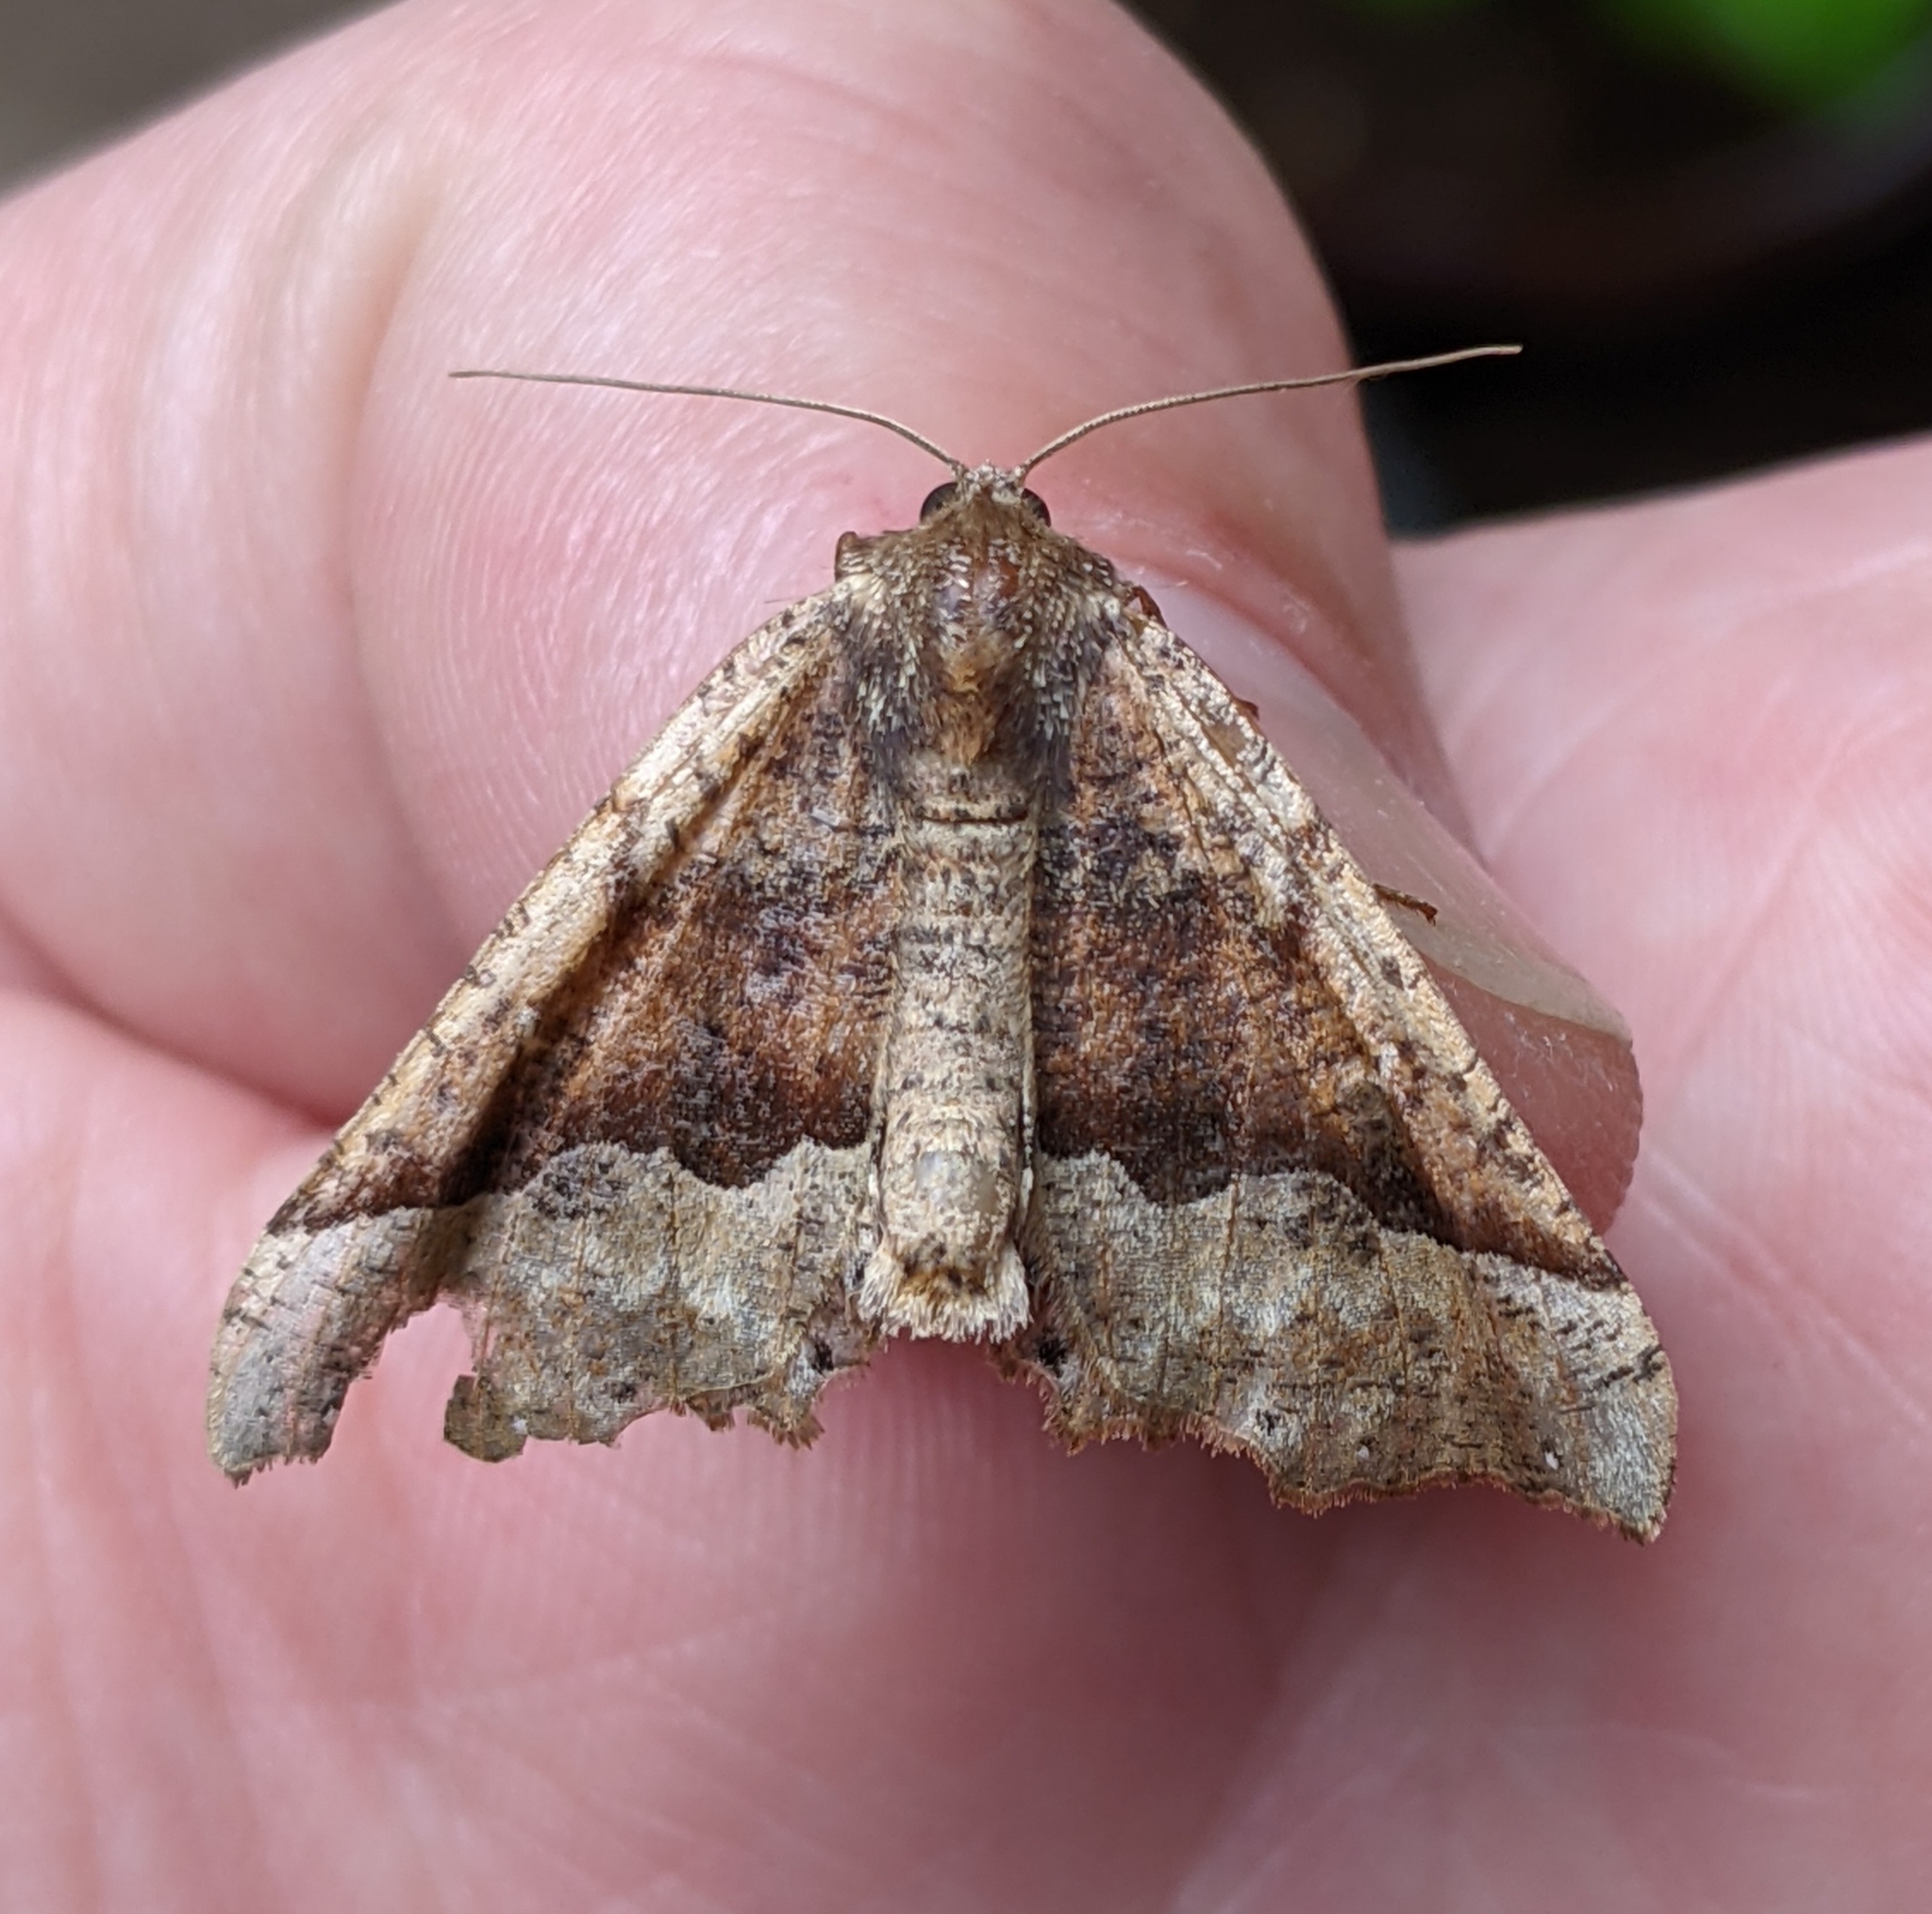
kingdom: Animalia
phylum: Arthropoda
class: Insecta
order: Lepidoptera
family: Geometridae
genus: Pero
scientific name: Pero morrisonaria
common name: Morrison's pero
